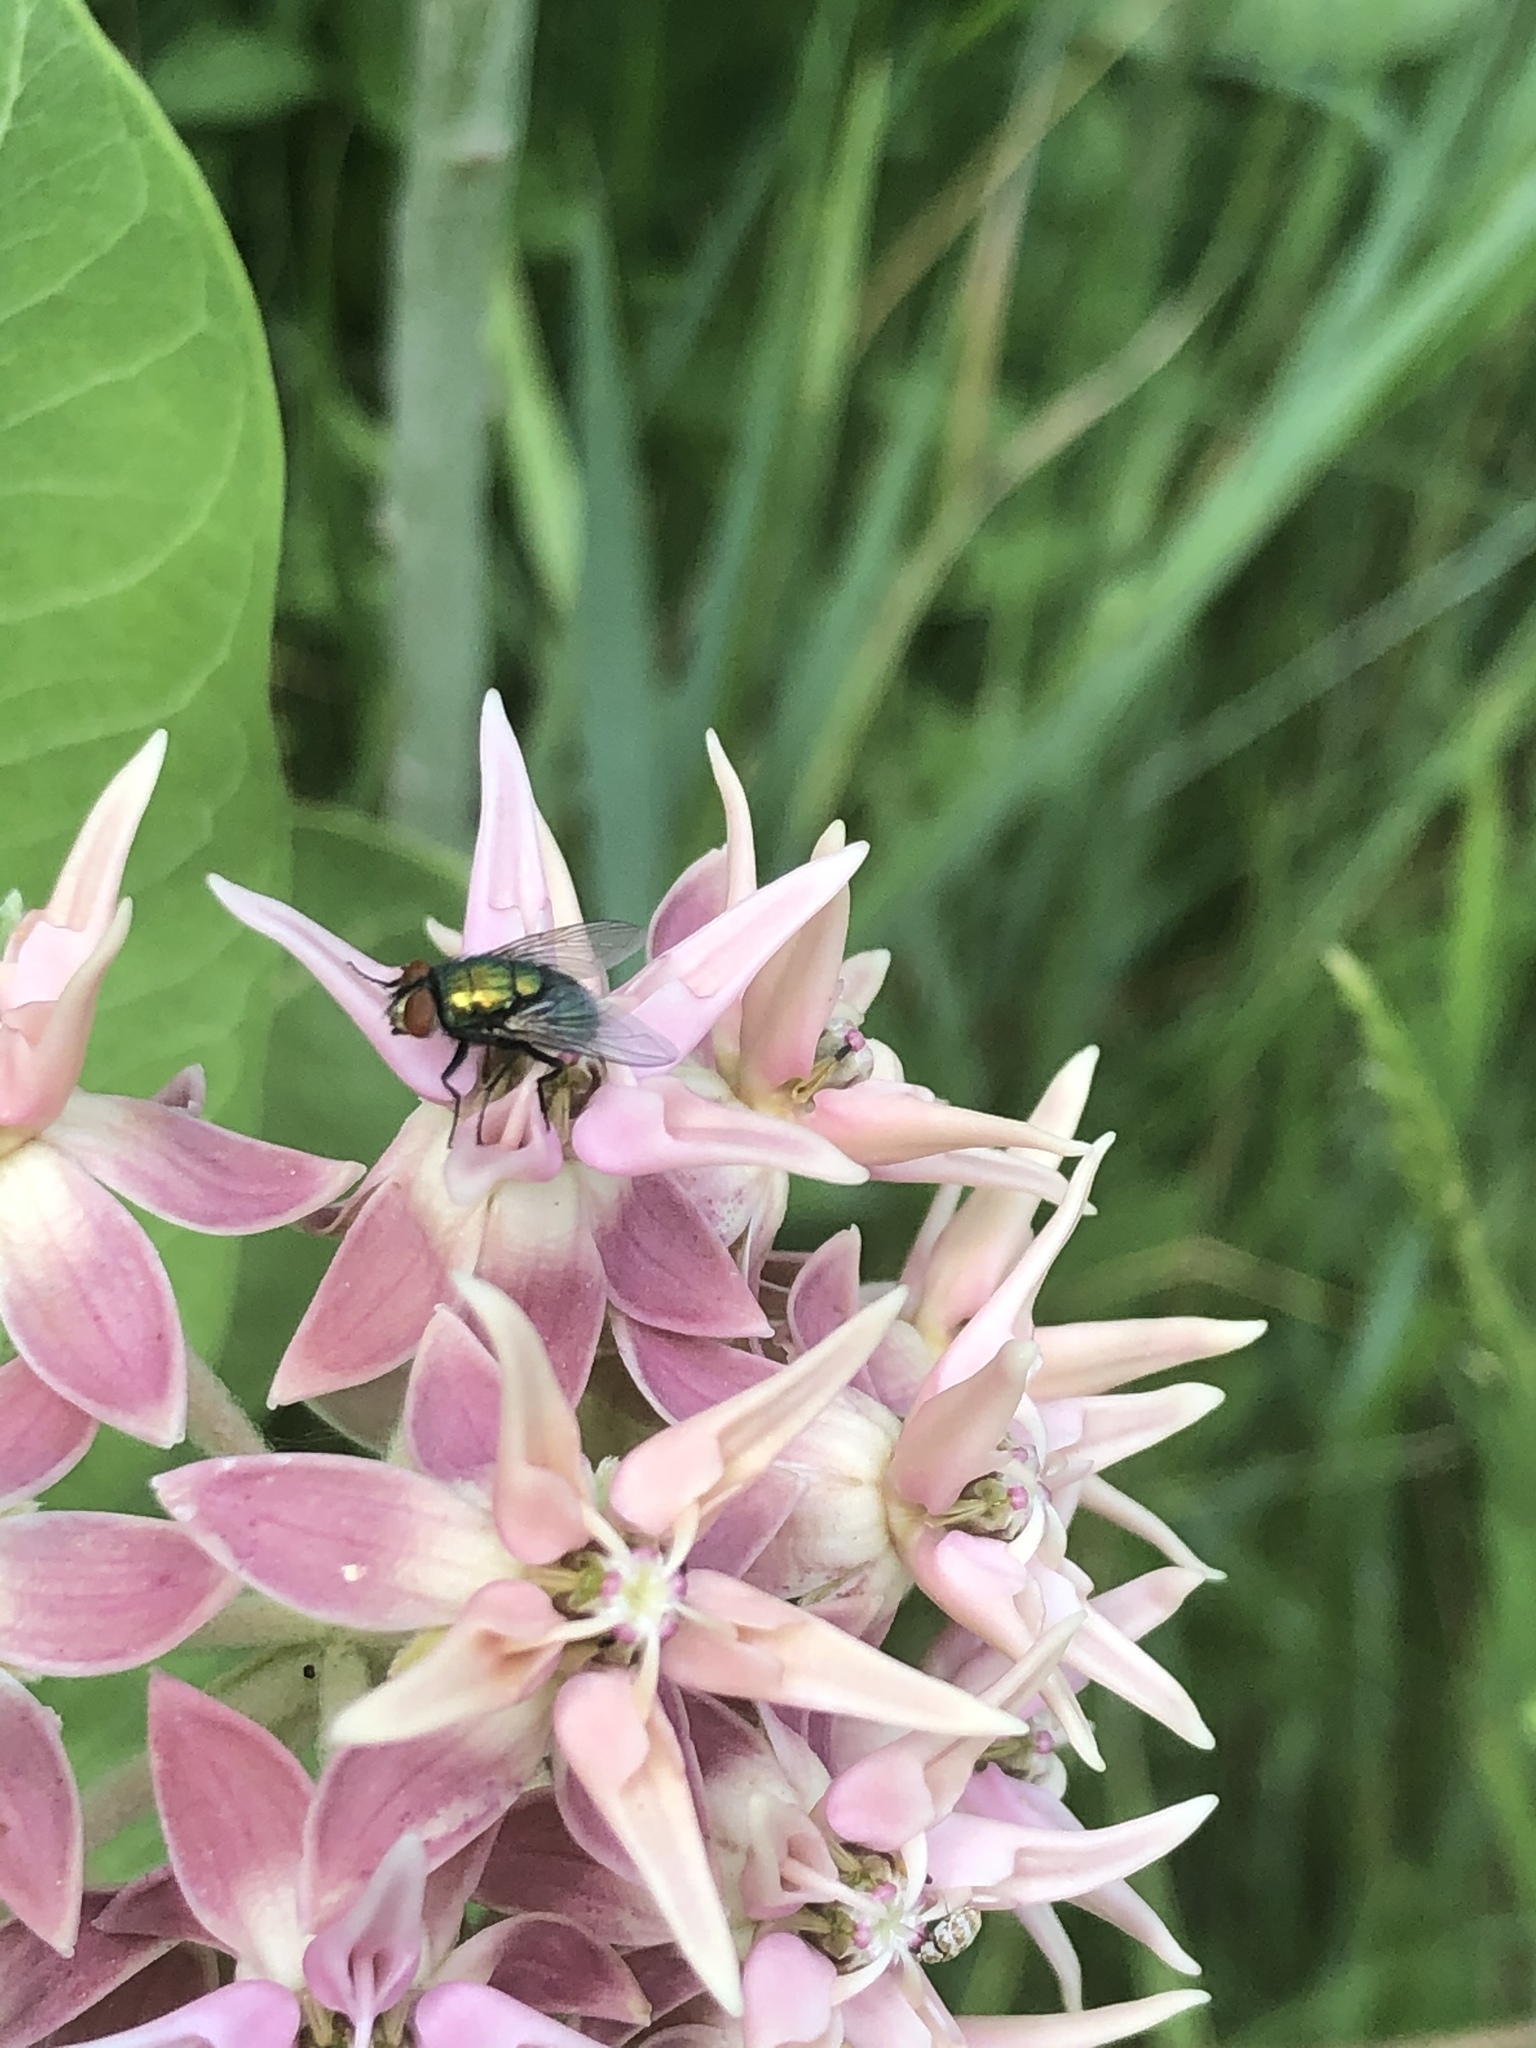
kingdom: Animalia
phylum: Arthropoda
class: Insecta
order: Diptera
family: Calliphoridae
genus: Lucilia
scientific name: Lucilia sericata
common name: Blow fly
